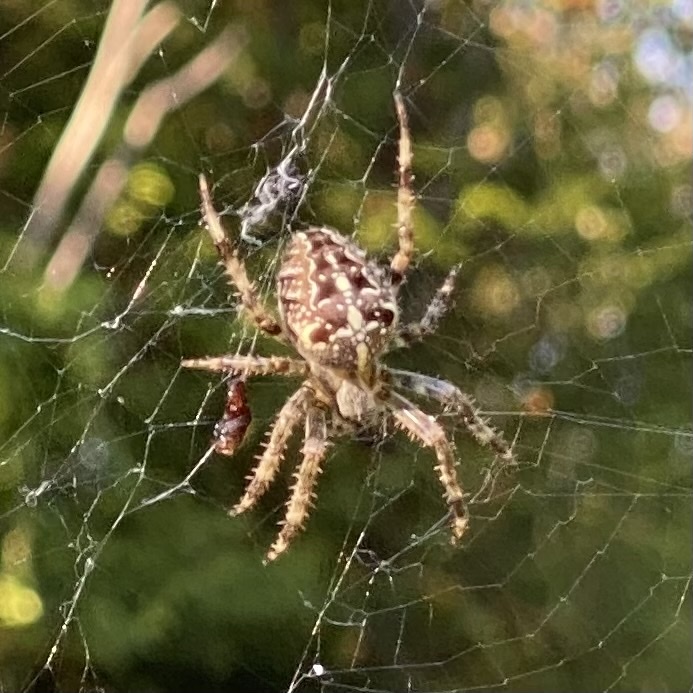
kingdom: Animalia
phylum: Arthropoda
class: Arachnida
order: Araneae
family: Araneidae
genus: Araneus
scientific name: Araneus diadematus
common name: Cross orbweaver
